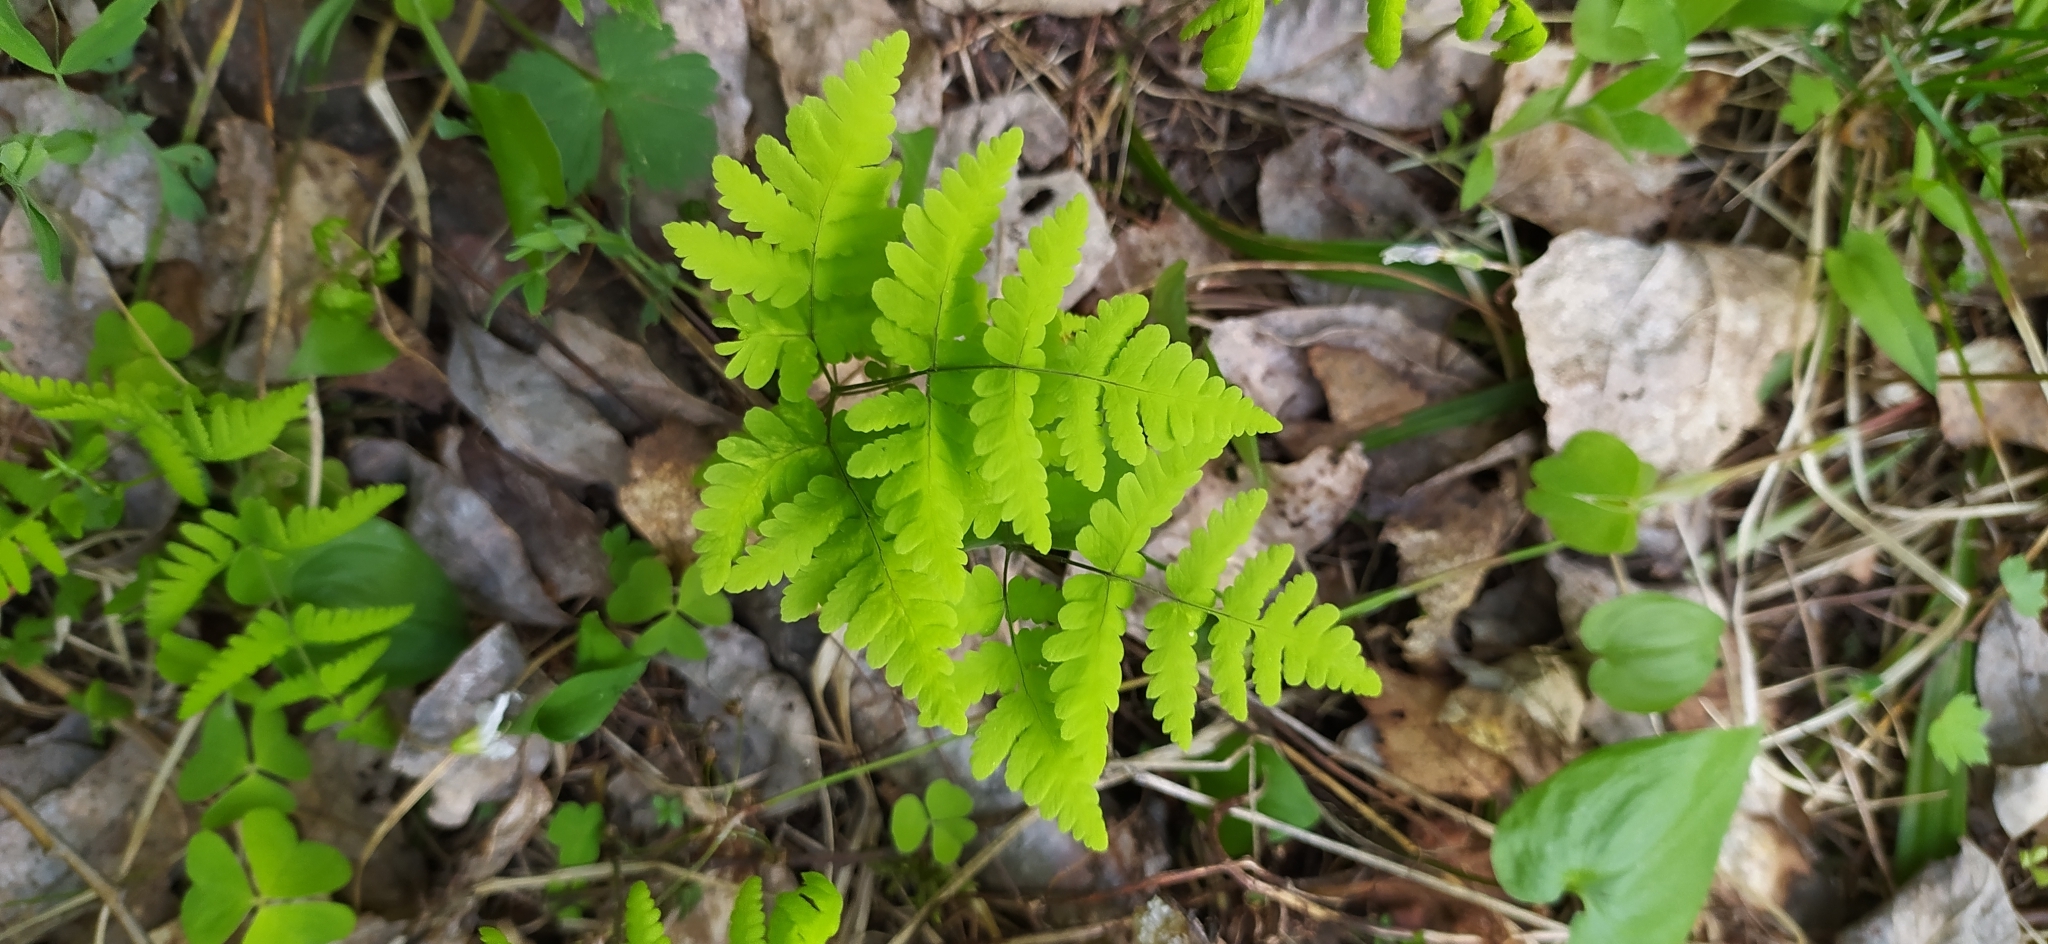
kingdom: Plantae
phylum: Tracheophyta
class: Polypodiopsida
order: Polypodiales
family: Cystopteridaceae
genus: Gymnocarpium
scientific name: Gymnocarpium dryopteris
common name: Oak fern
